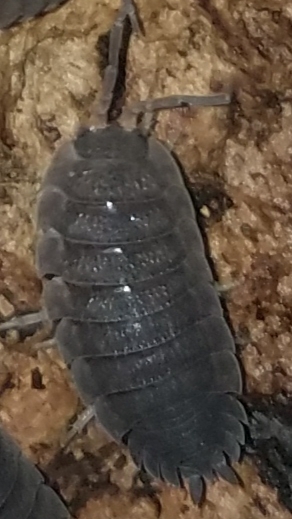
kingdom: Animalia
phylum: Arthropoda
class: Malacostraca
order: Isopoda
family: Porcellionidae
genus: Porcellio
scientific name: Porcellio scaber
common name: Common rough woodlouse
